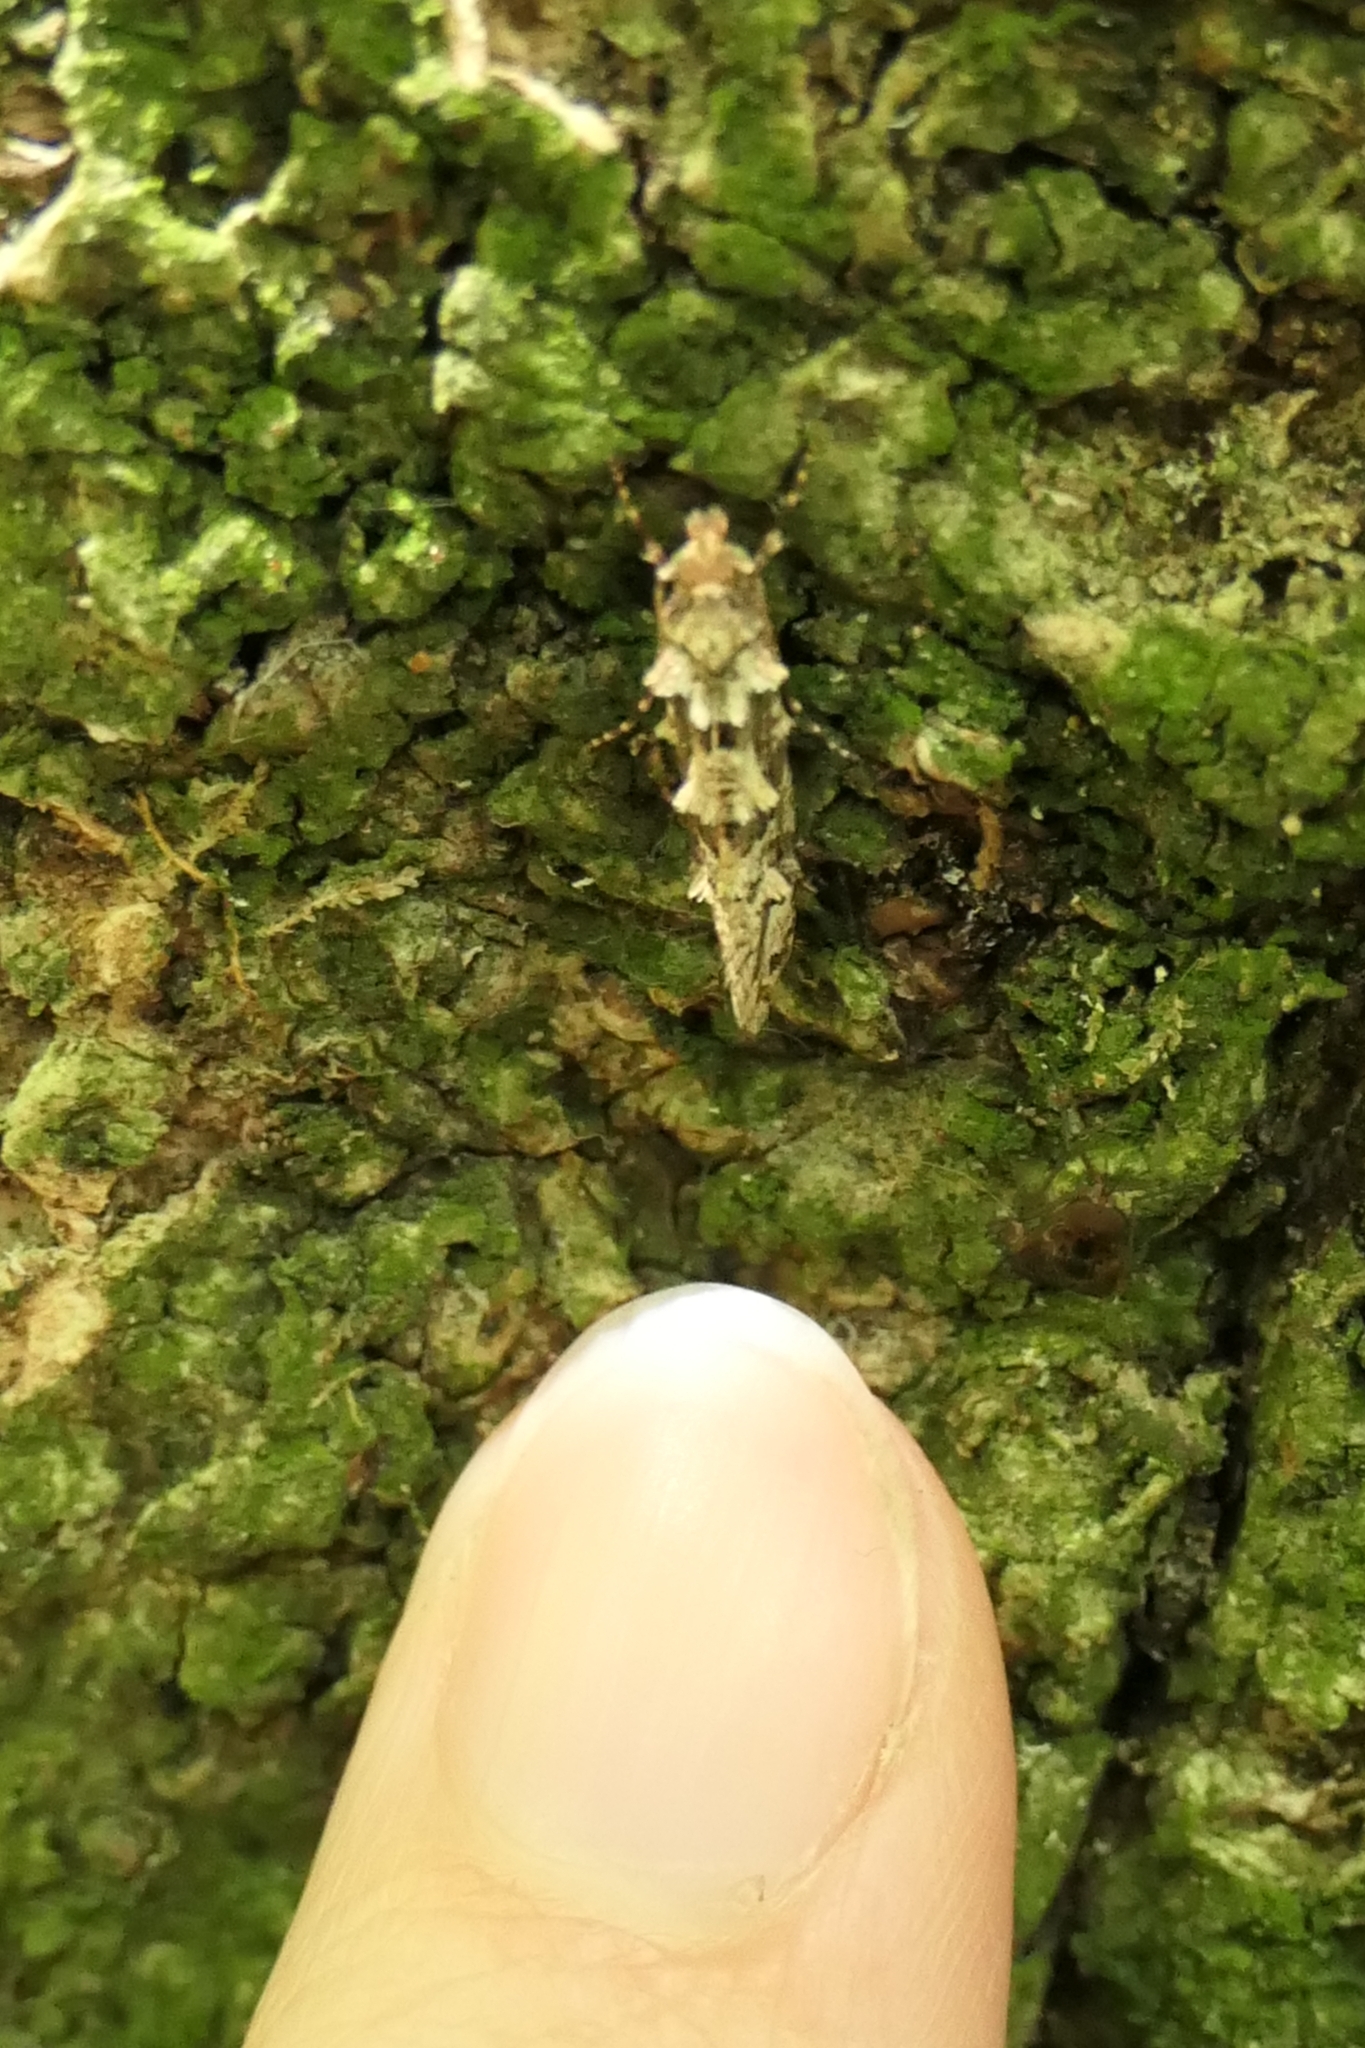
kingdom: Animalia
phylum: Arthropoda
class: Insecta
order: Lepidoptera
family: Tineidae
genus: Lysiphragma
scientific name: Lysiphragma howesii
